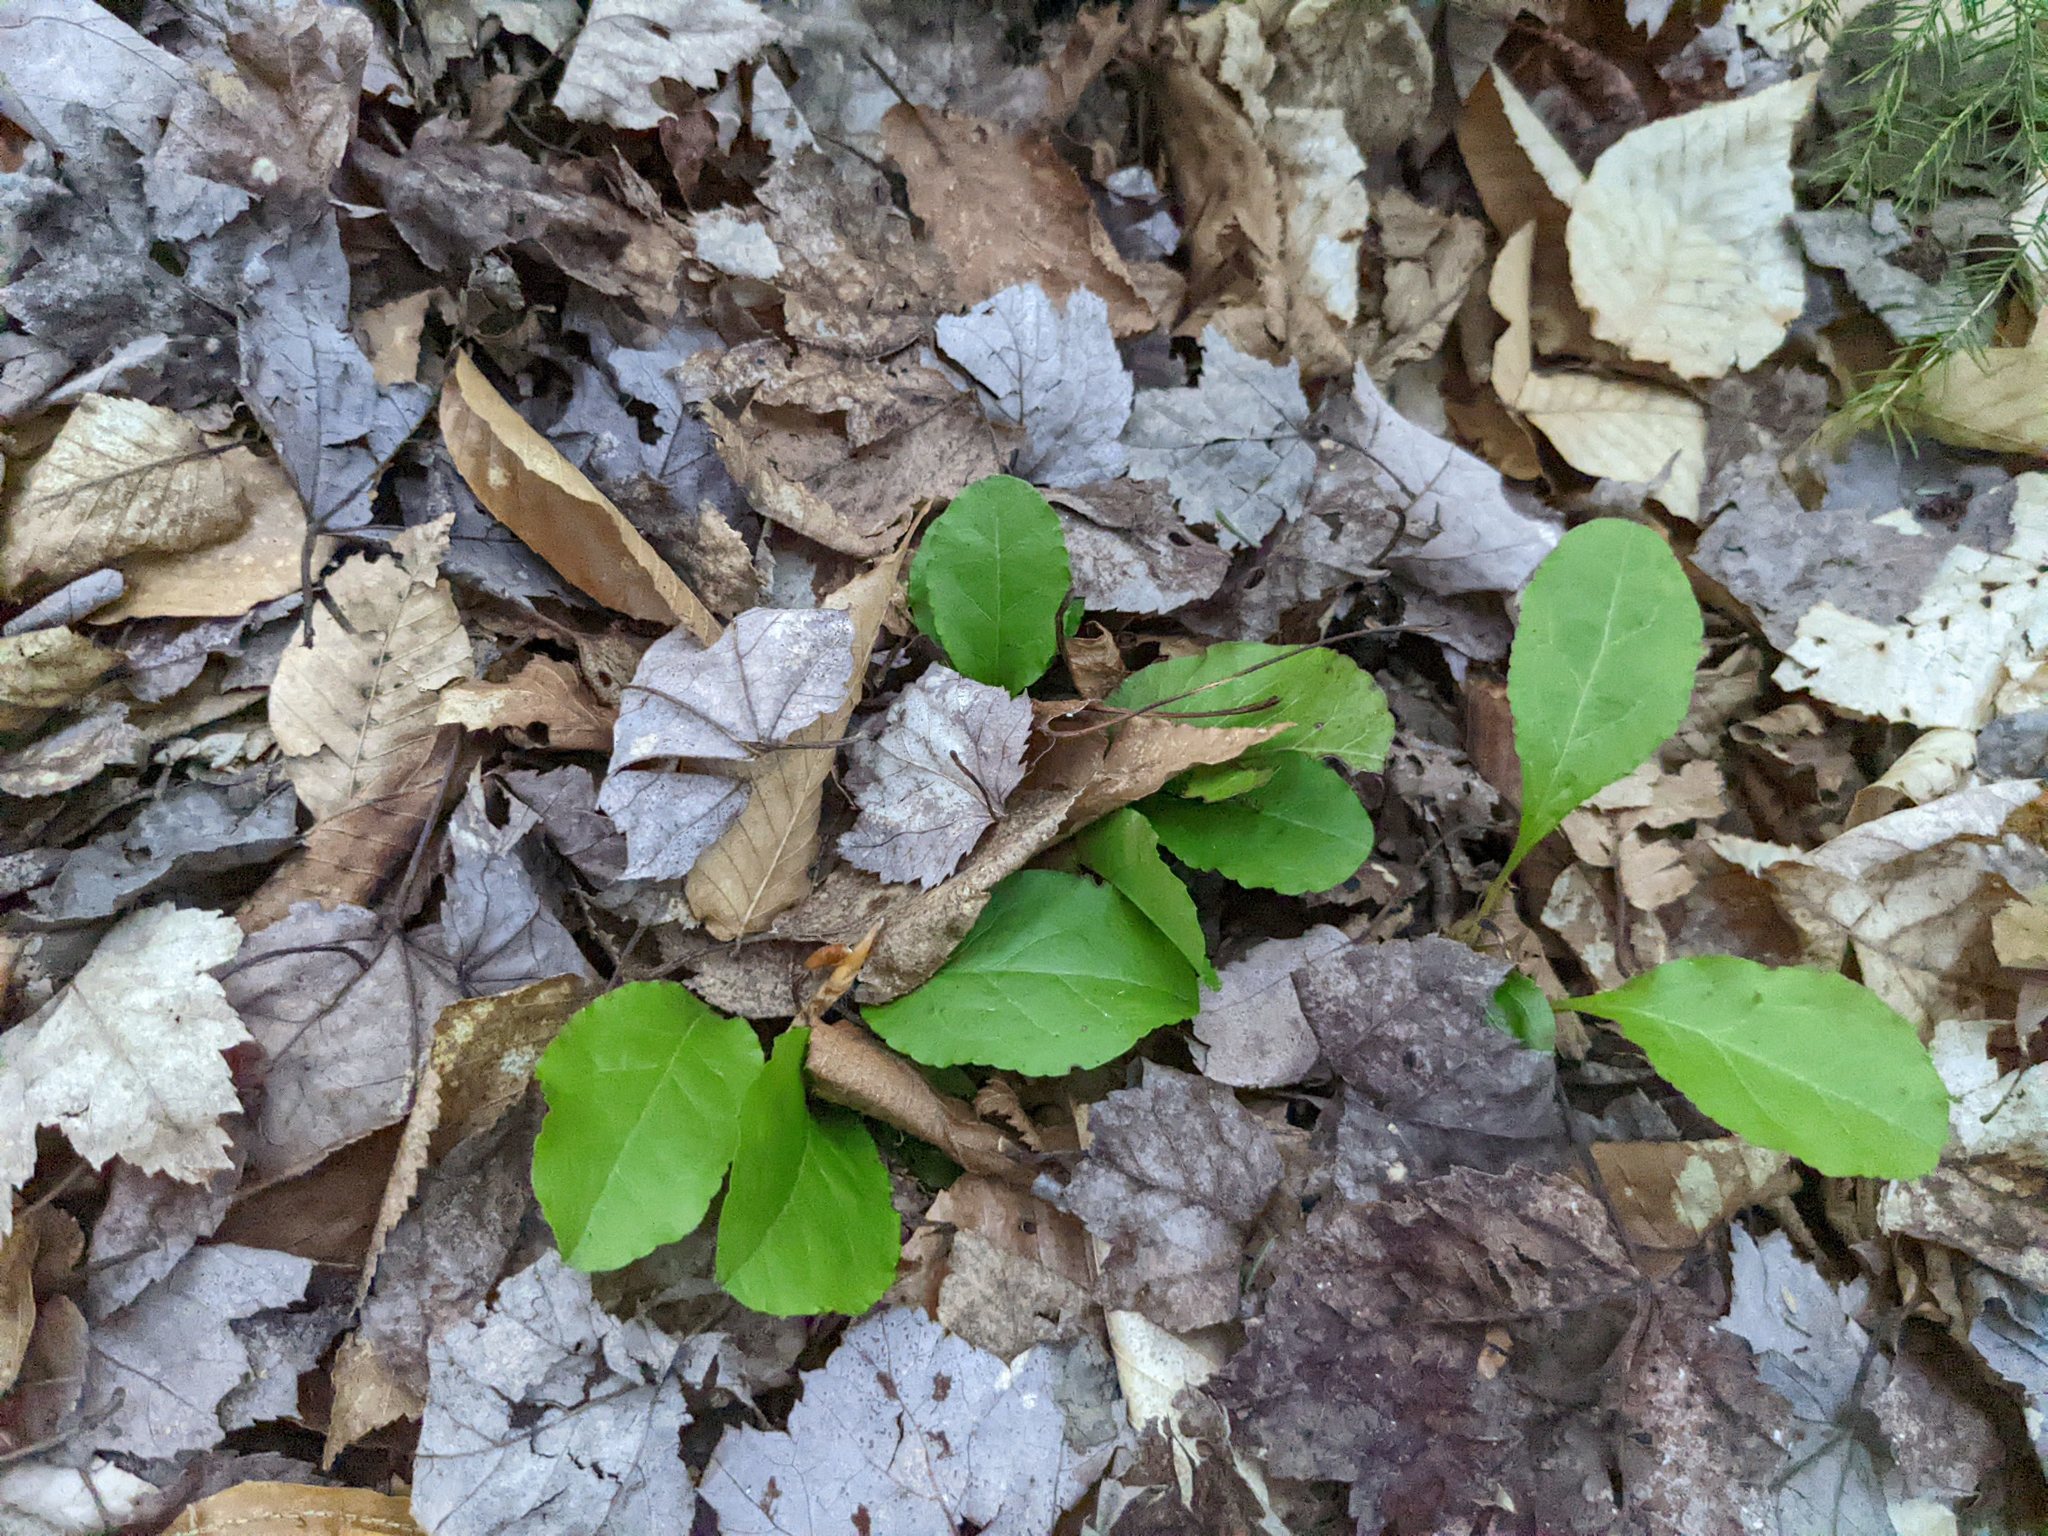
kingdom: Plantae
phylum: Tracheophyta
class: Magnoliopsida
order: Ericales
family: Ericaceae
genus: Pyrola
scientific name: Pyrola elliptica
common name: Shinleaf
